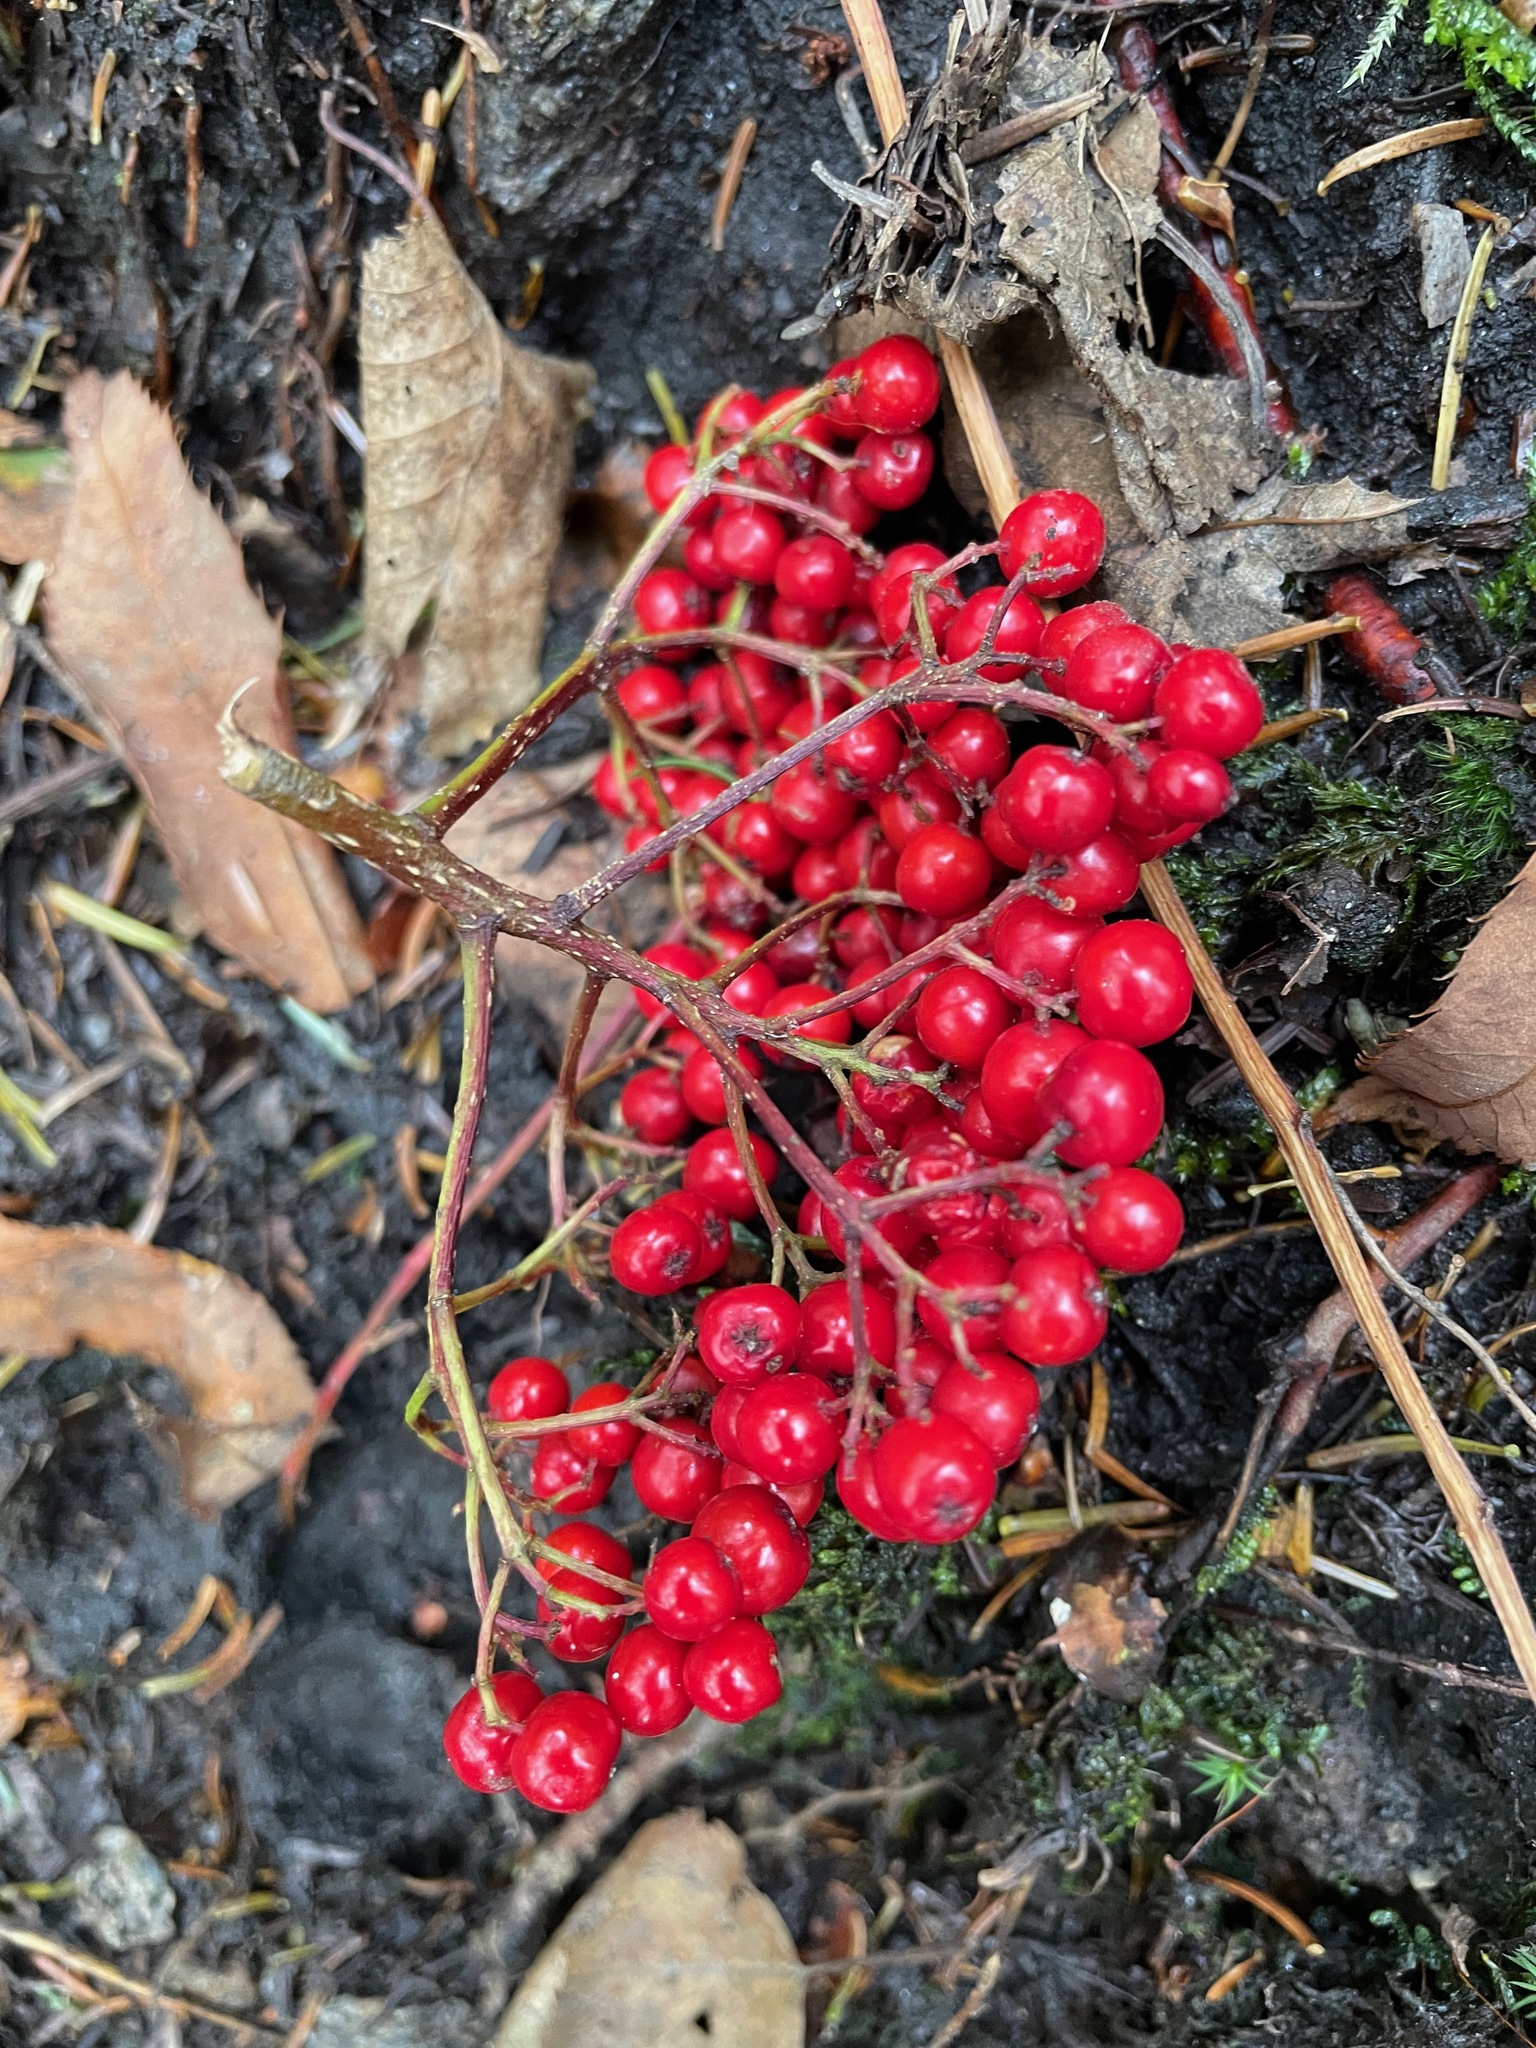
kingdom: Plantae
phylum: Tracheophyta
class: Magnoliopsida
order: Rosales
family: Rosaceae
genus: Sorbus
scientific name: Sorbus americana
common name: American mountain-ash
